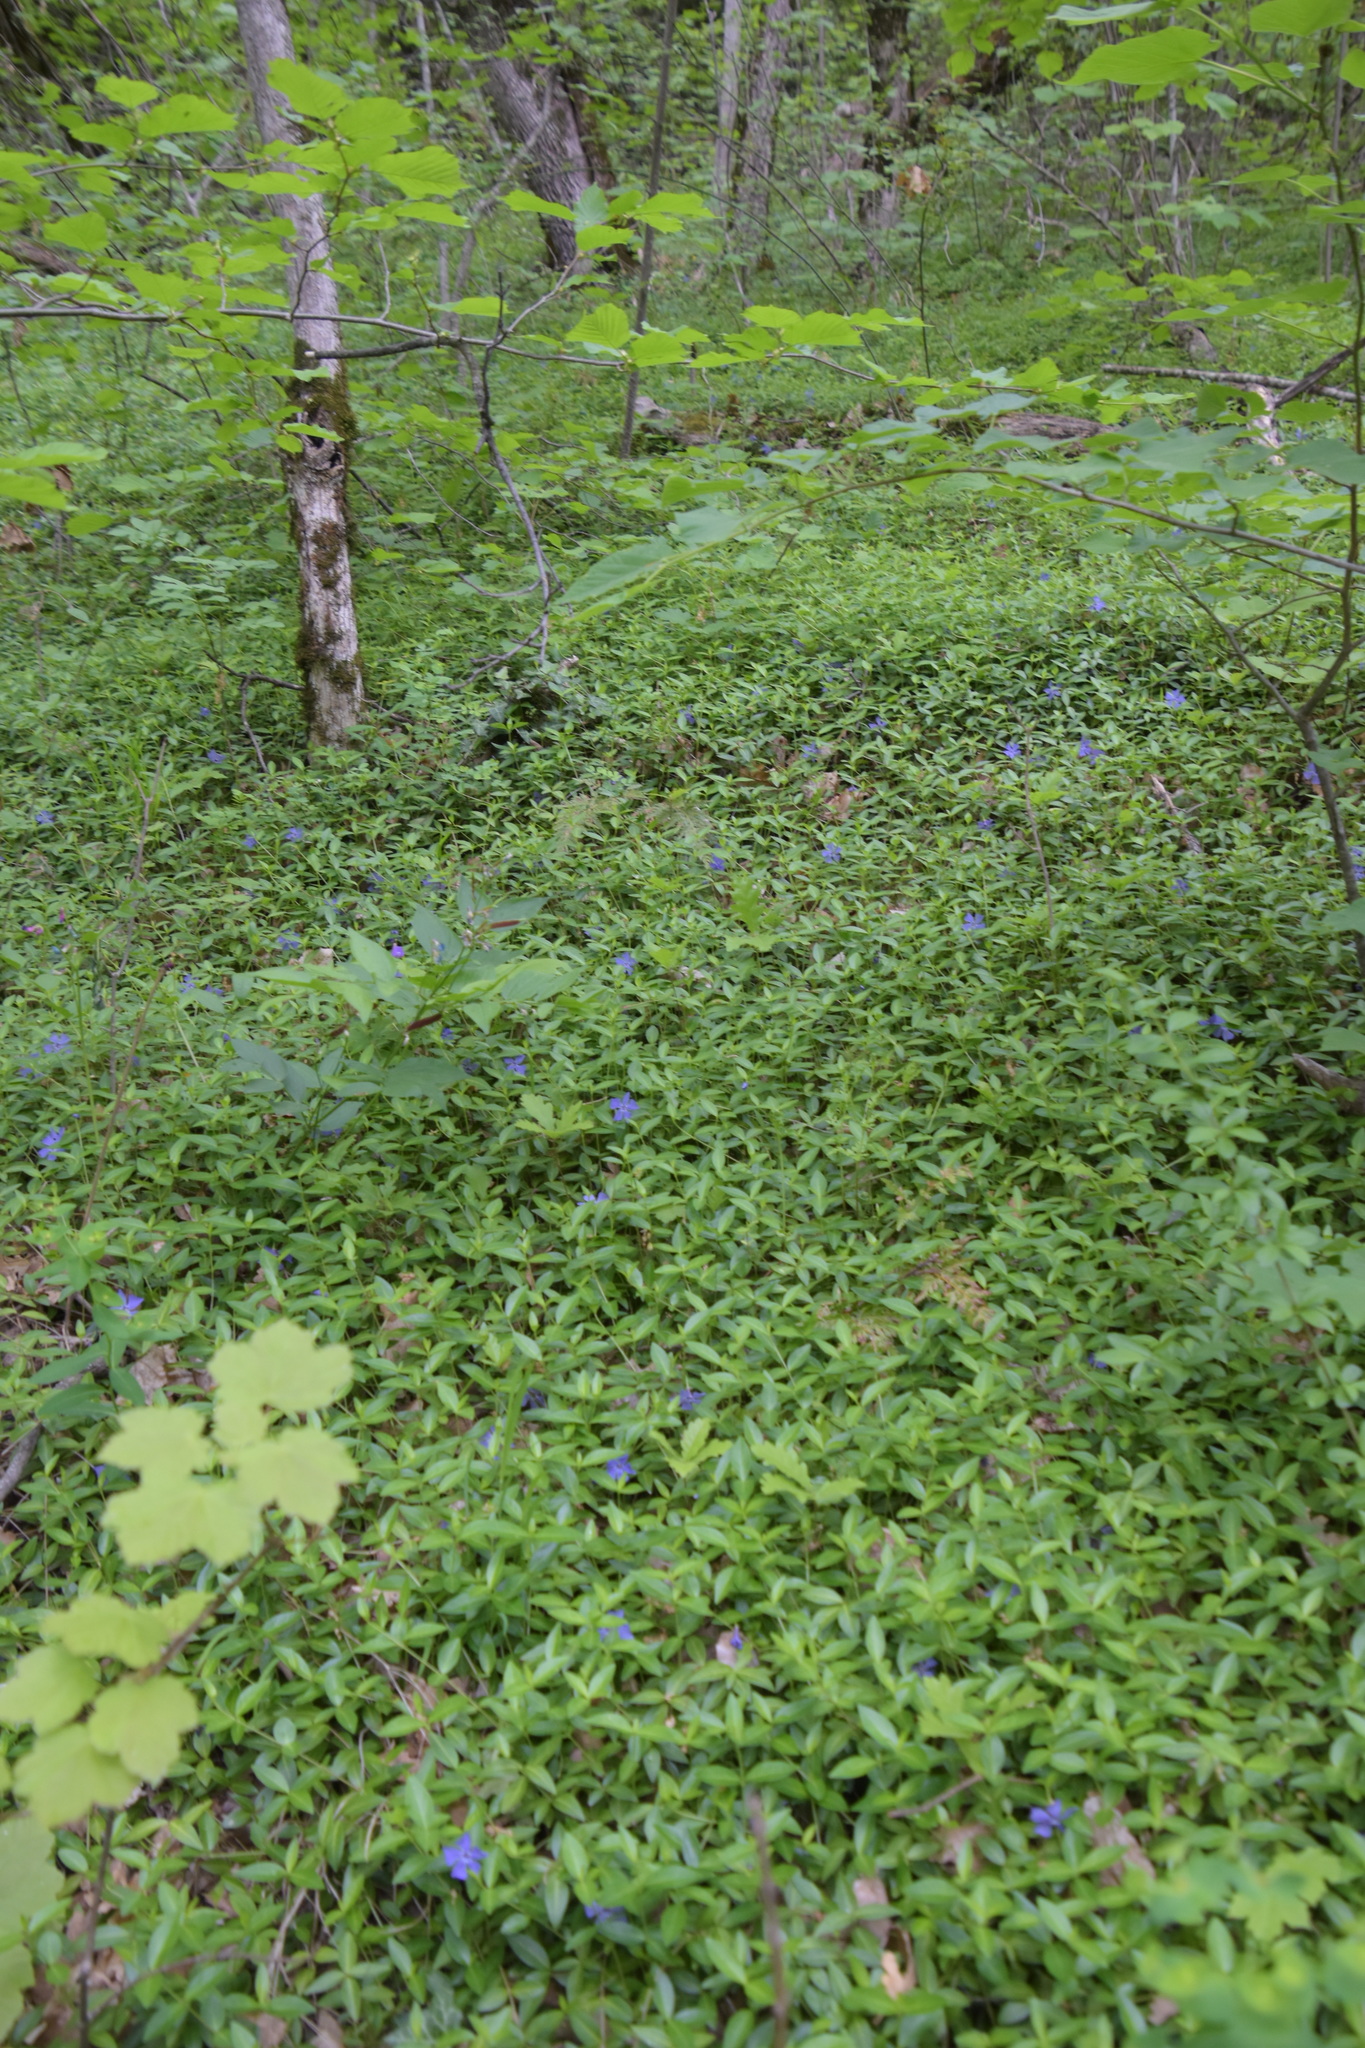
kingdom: Plantae
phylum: Tracheophyta
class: Magnoliopsida
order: Gentianales
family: Apocynaceae
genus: Vinca
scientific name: Vinca minor
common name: Lesser periwinkle
